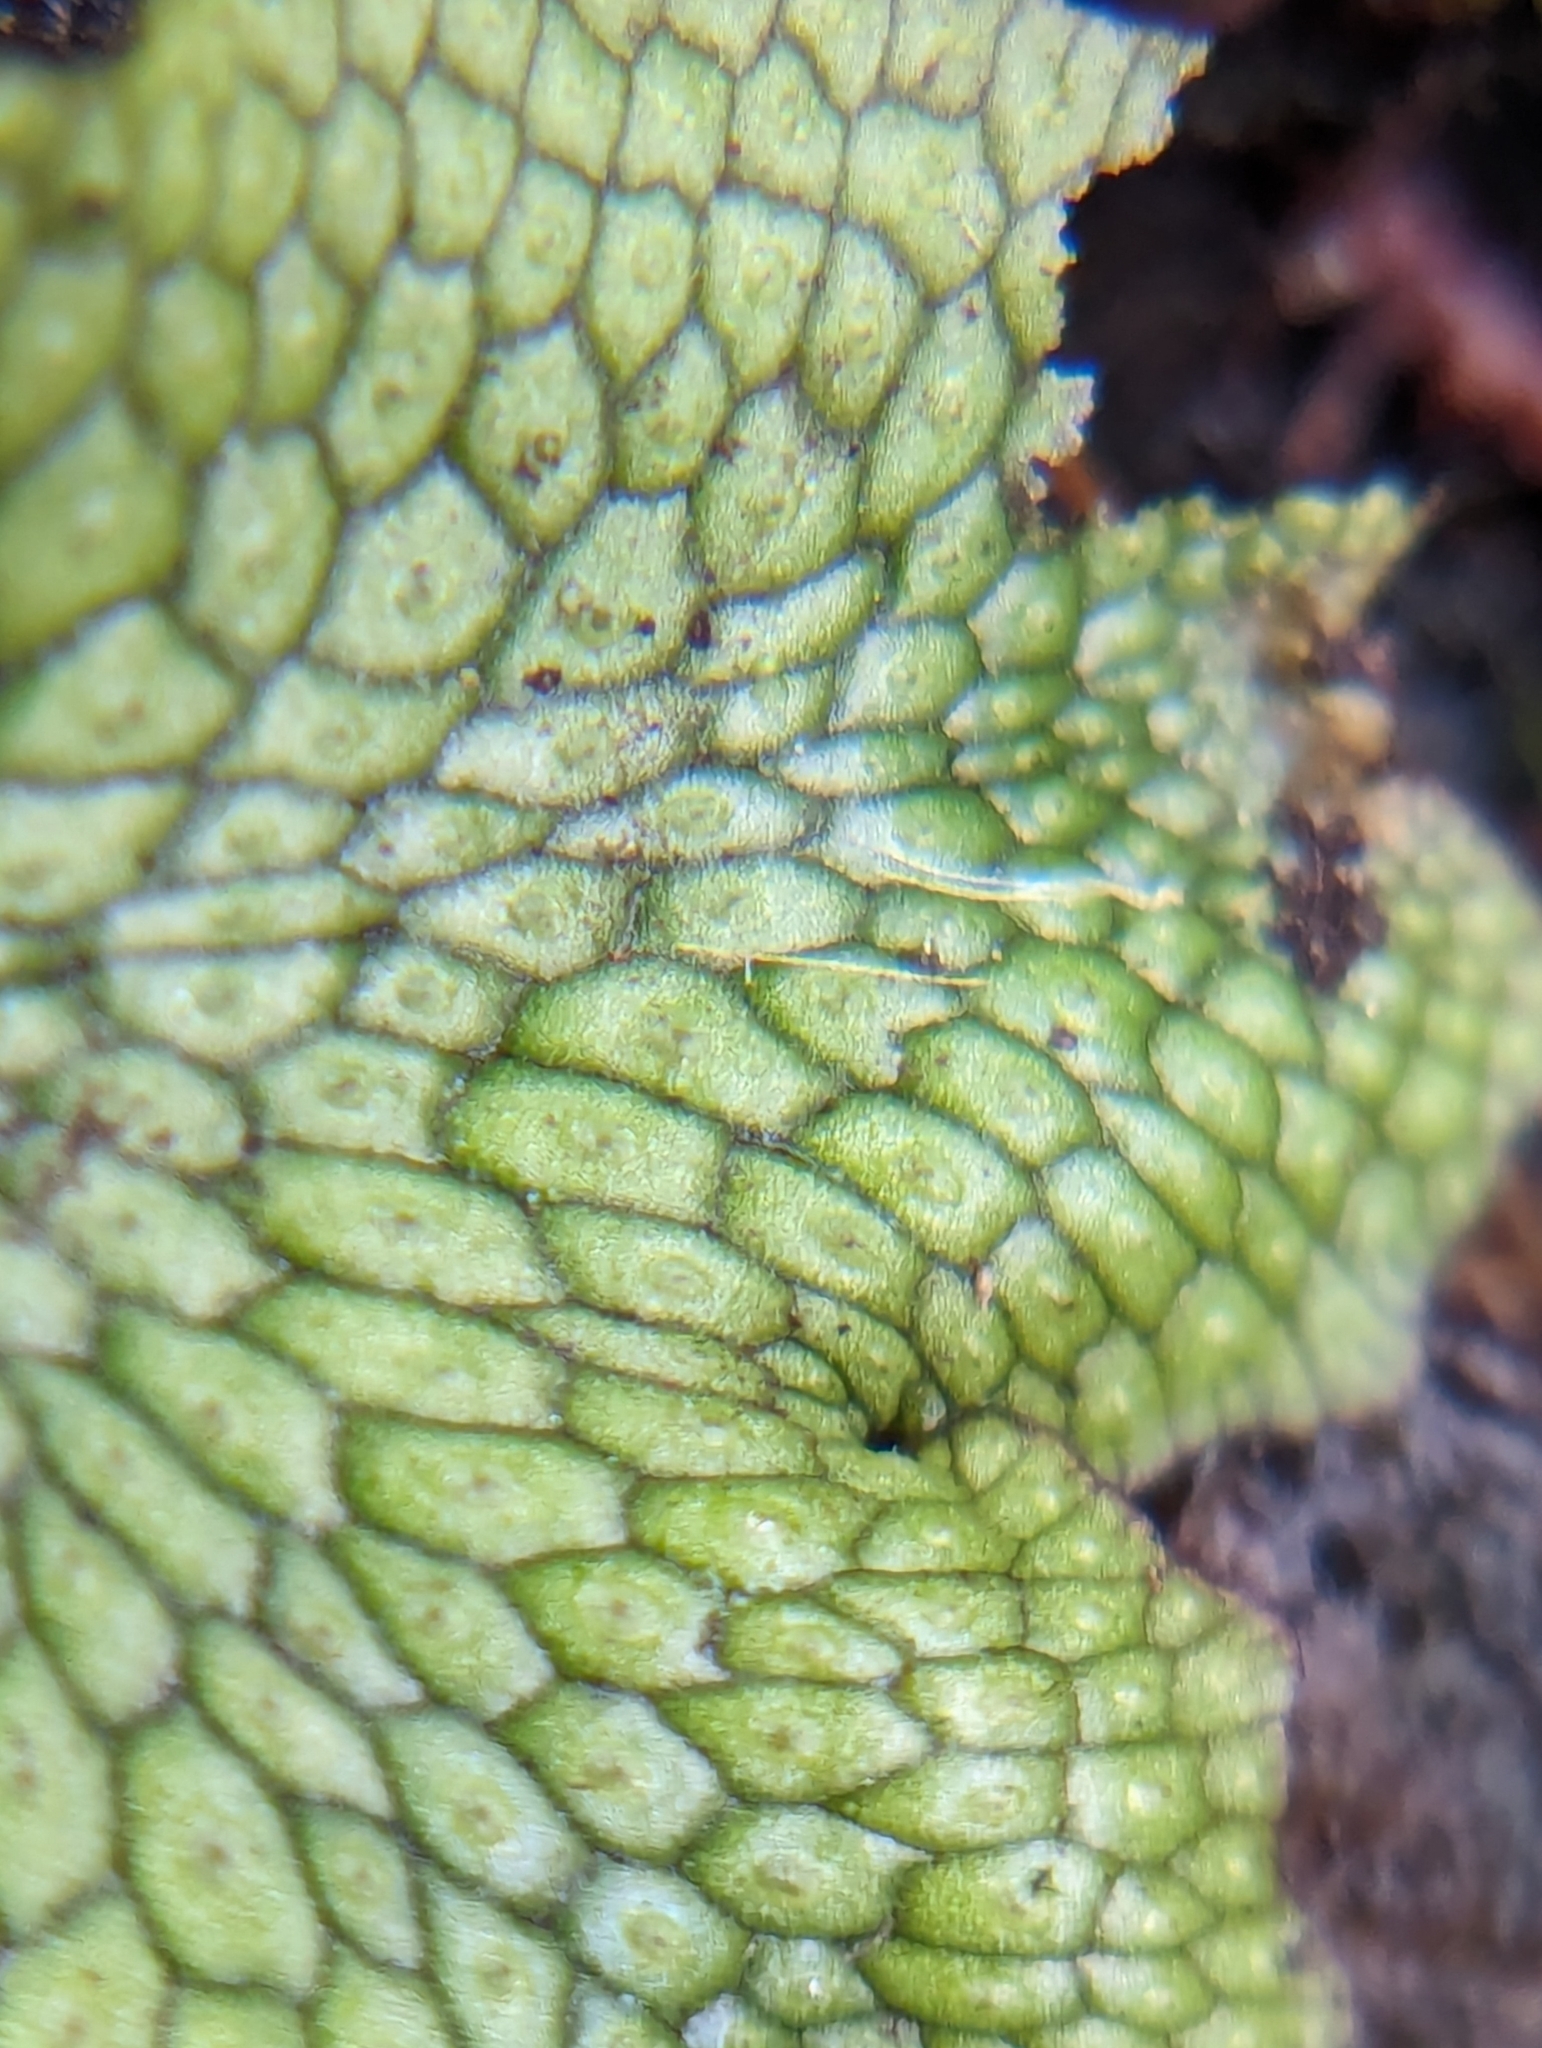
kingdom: Plantae
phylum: Marchantiophyta
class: Marchantiopsida
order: Marchantiales
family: Conocephalaceae
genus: Conocephalum
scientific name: Conocephalum salebrosum
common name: Cat-tongue liverwort
